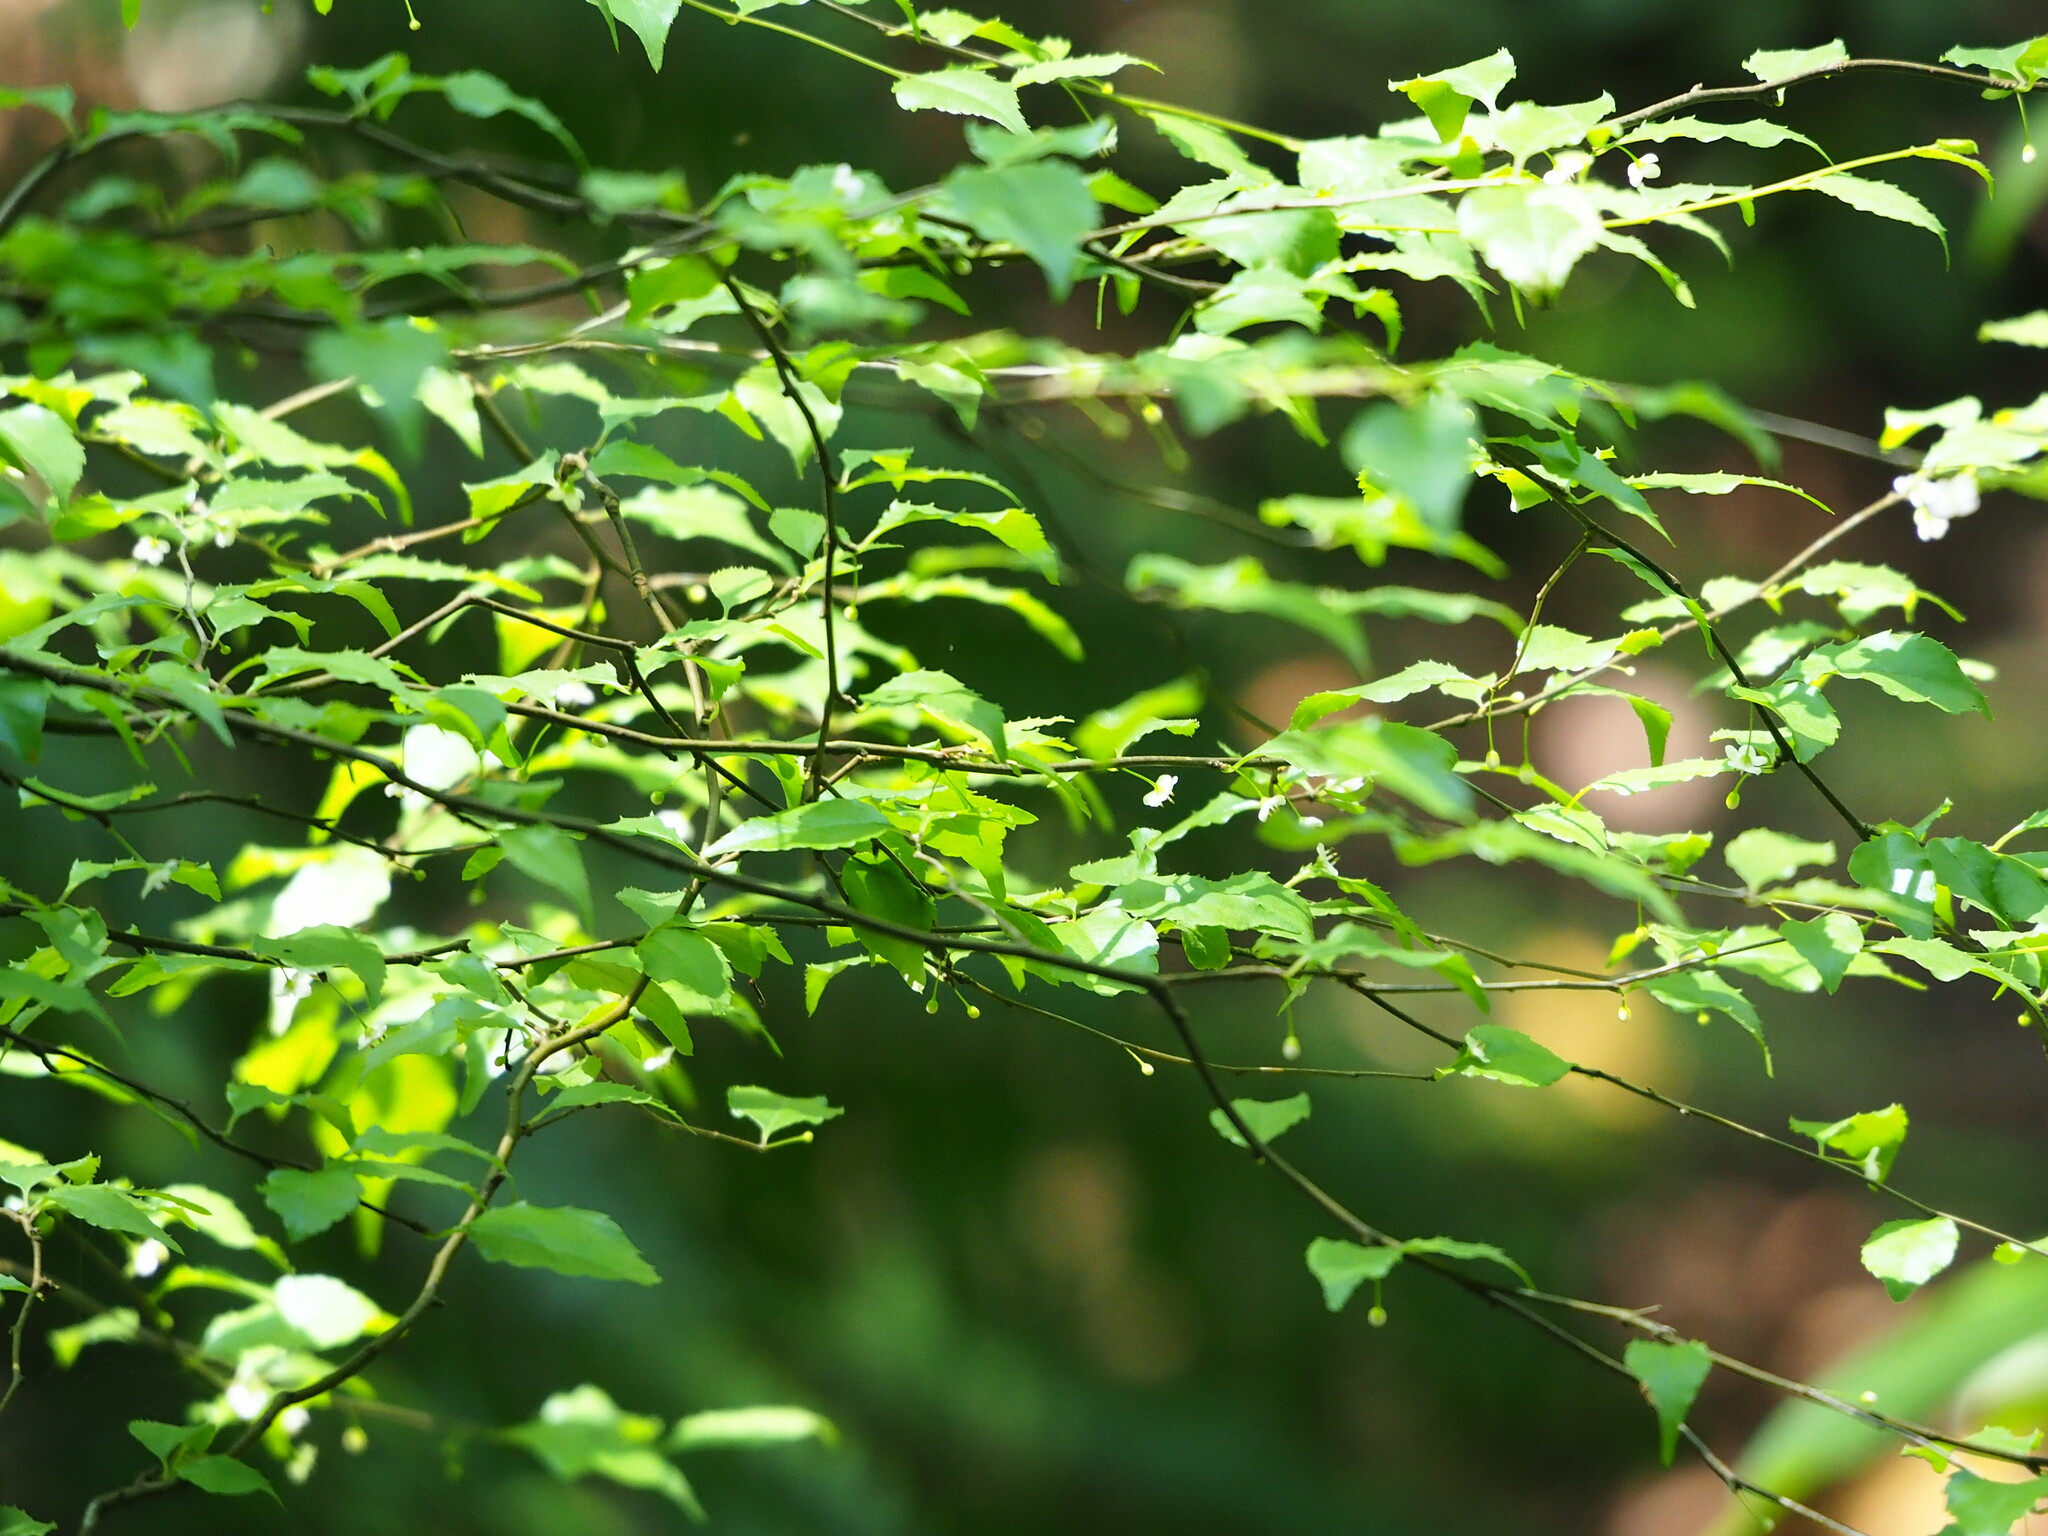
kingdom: Plantae
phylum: Tracheophyta
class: Magnoliopsida
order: Aquifoliales
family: Aquifoliaceae
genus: Ilex
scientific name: Ilex asprella
